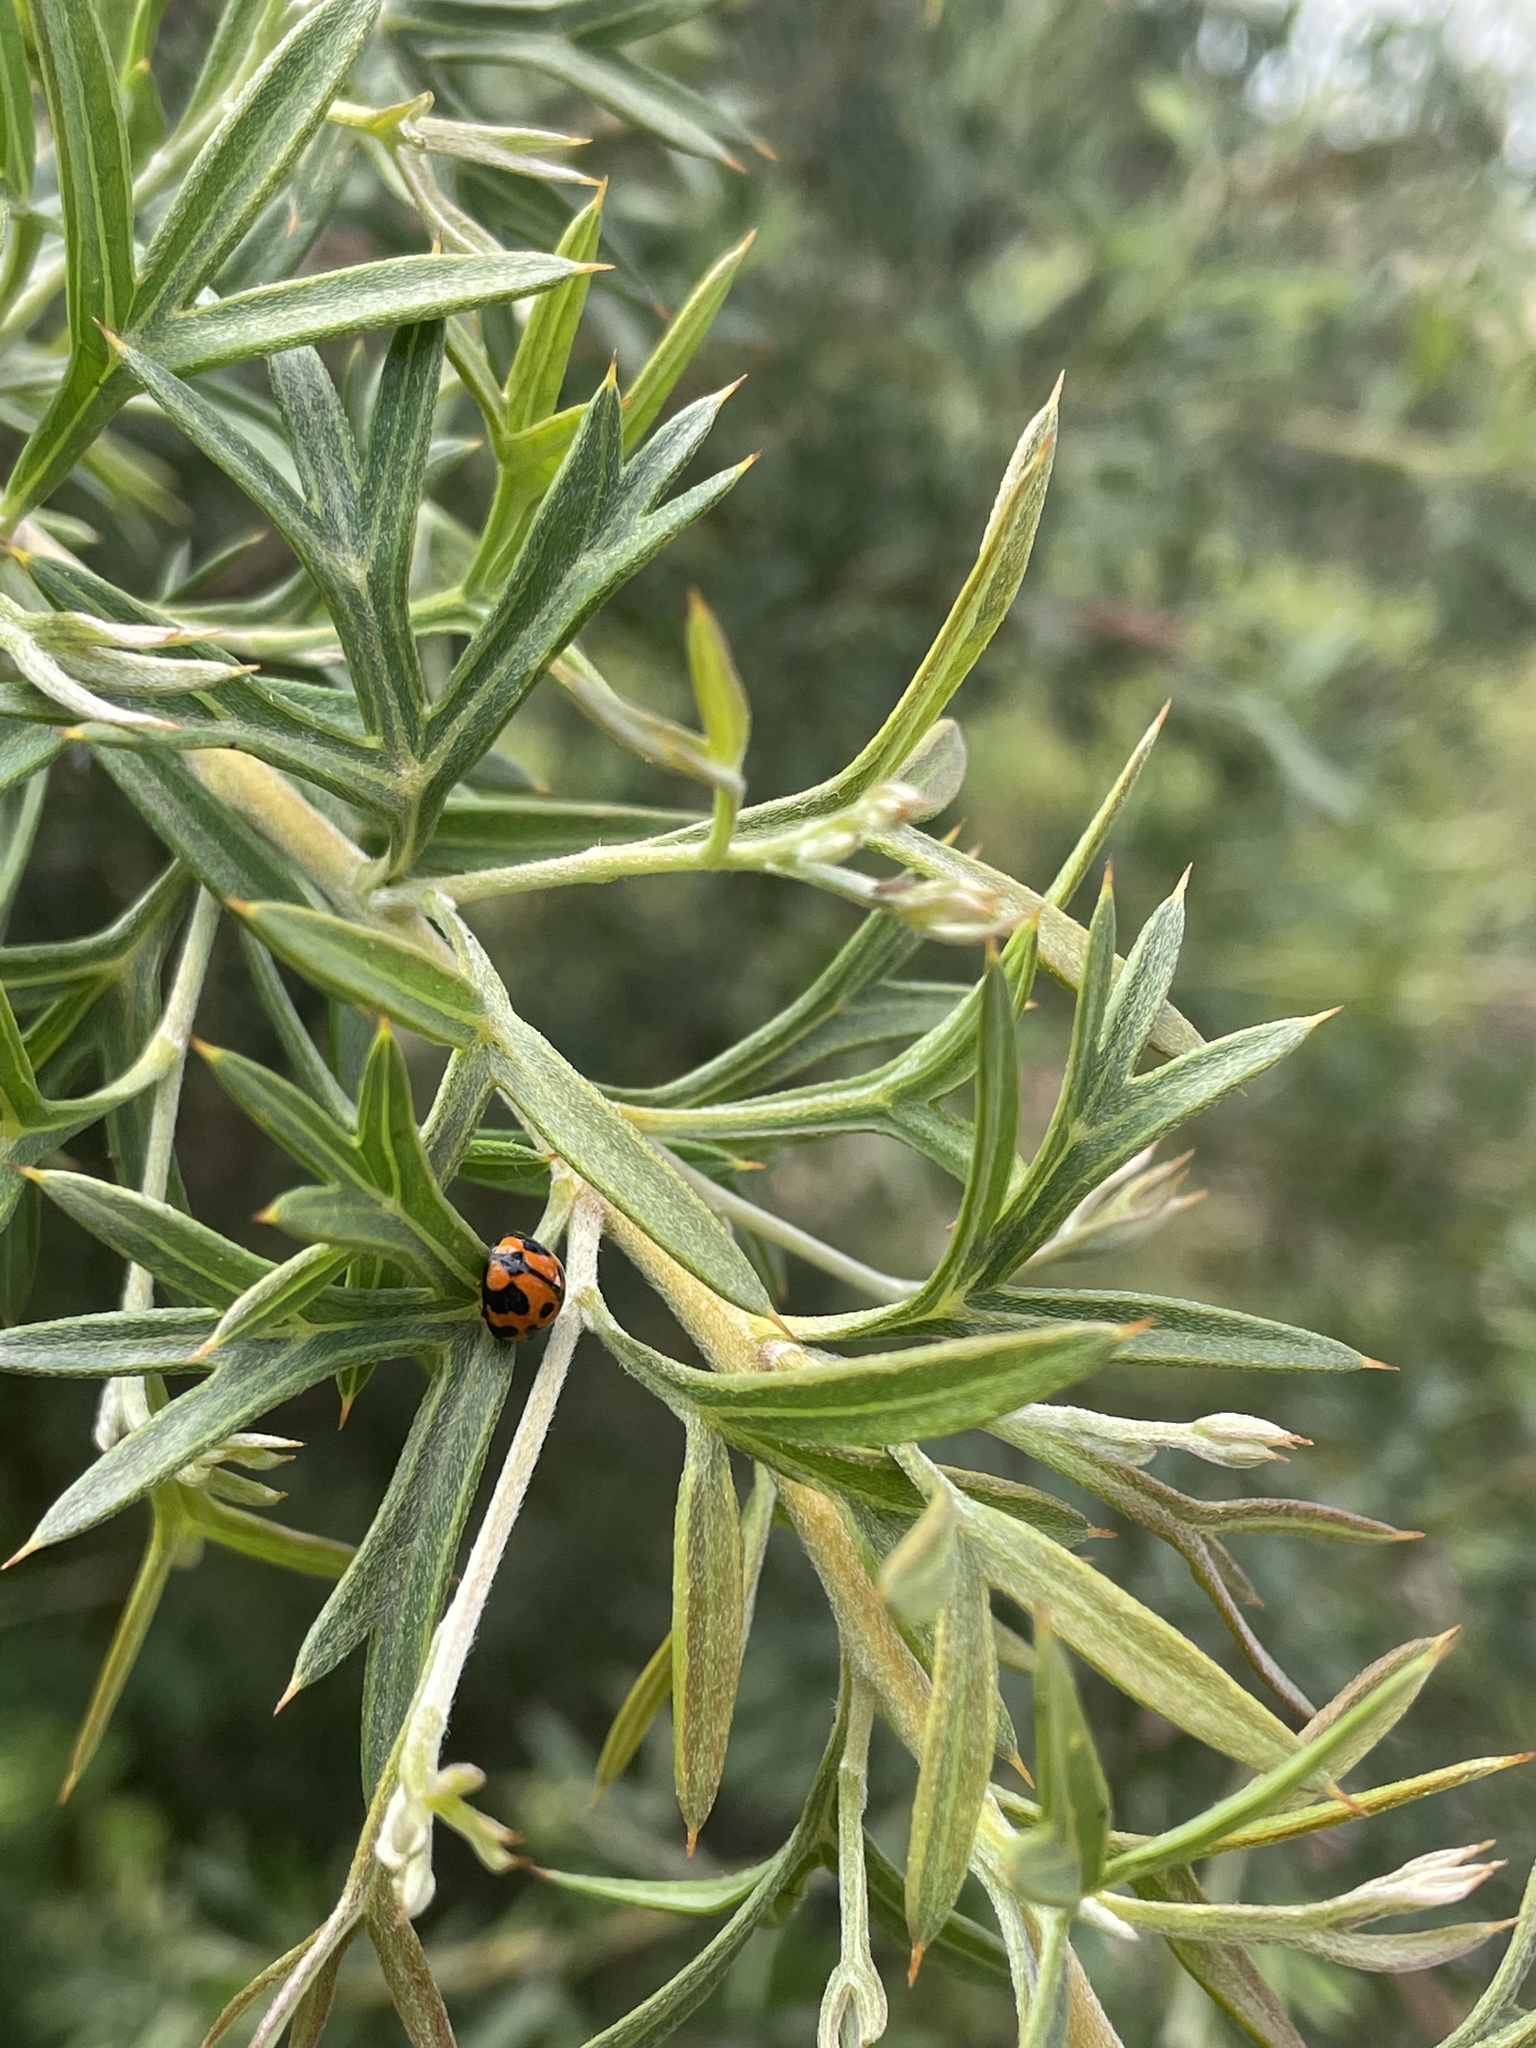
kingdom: Animalia
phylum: Arthropoda
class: Insecta
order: Coleoptera
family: Coccinellidae
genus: Coelophora
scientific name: Coelophora inaequalis
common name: Common australian lady beetle
